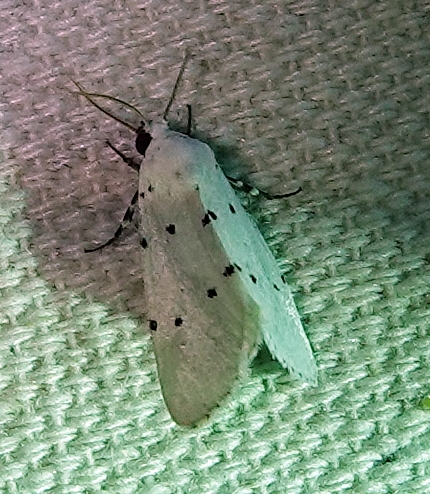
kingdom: Animalia
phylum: Arthropoda
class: Insecta
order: Lepidoptera
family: Noctuidae
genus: Grotella
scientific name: Grotella sampita
